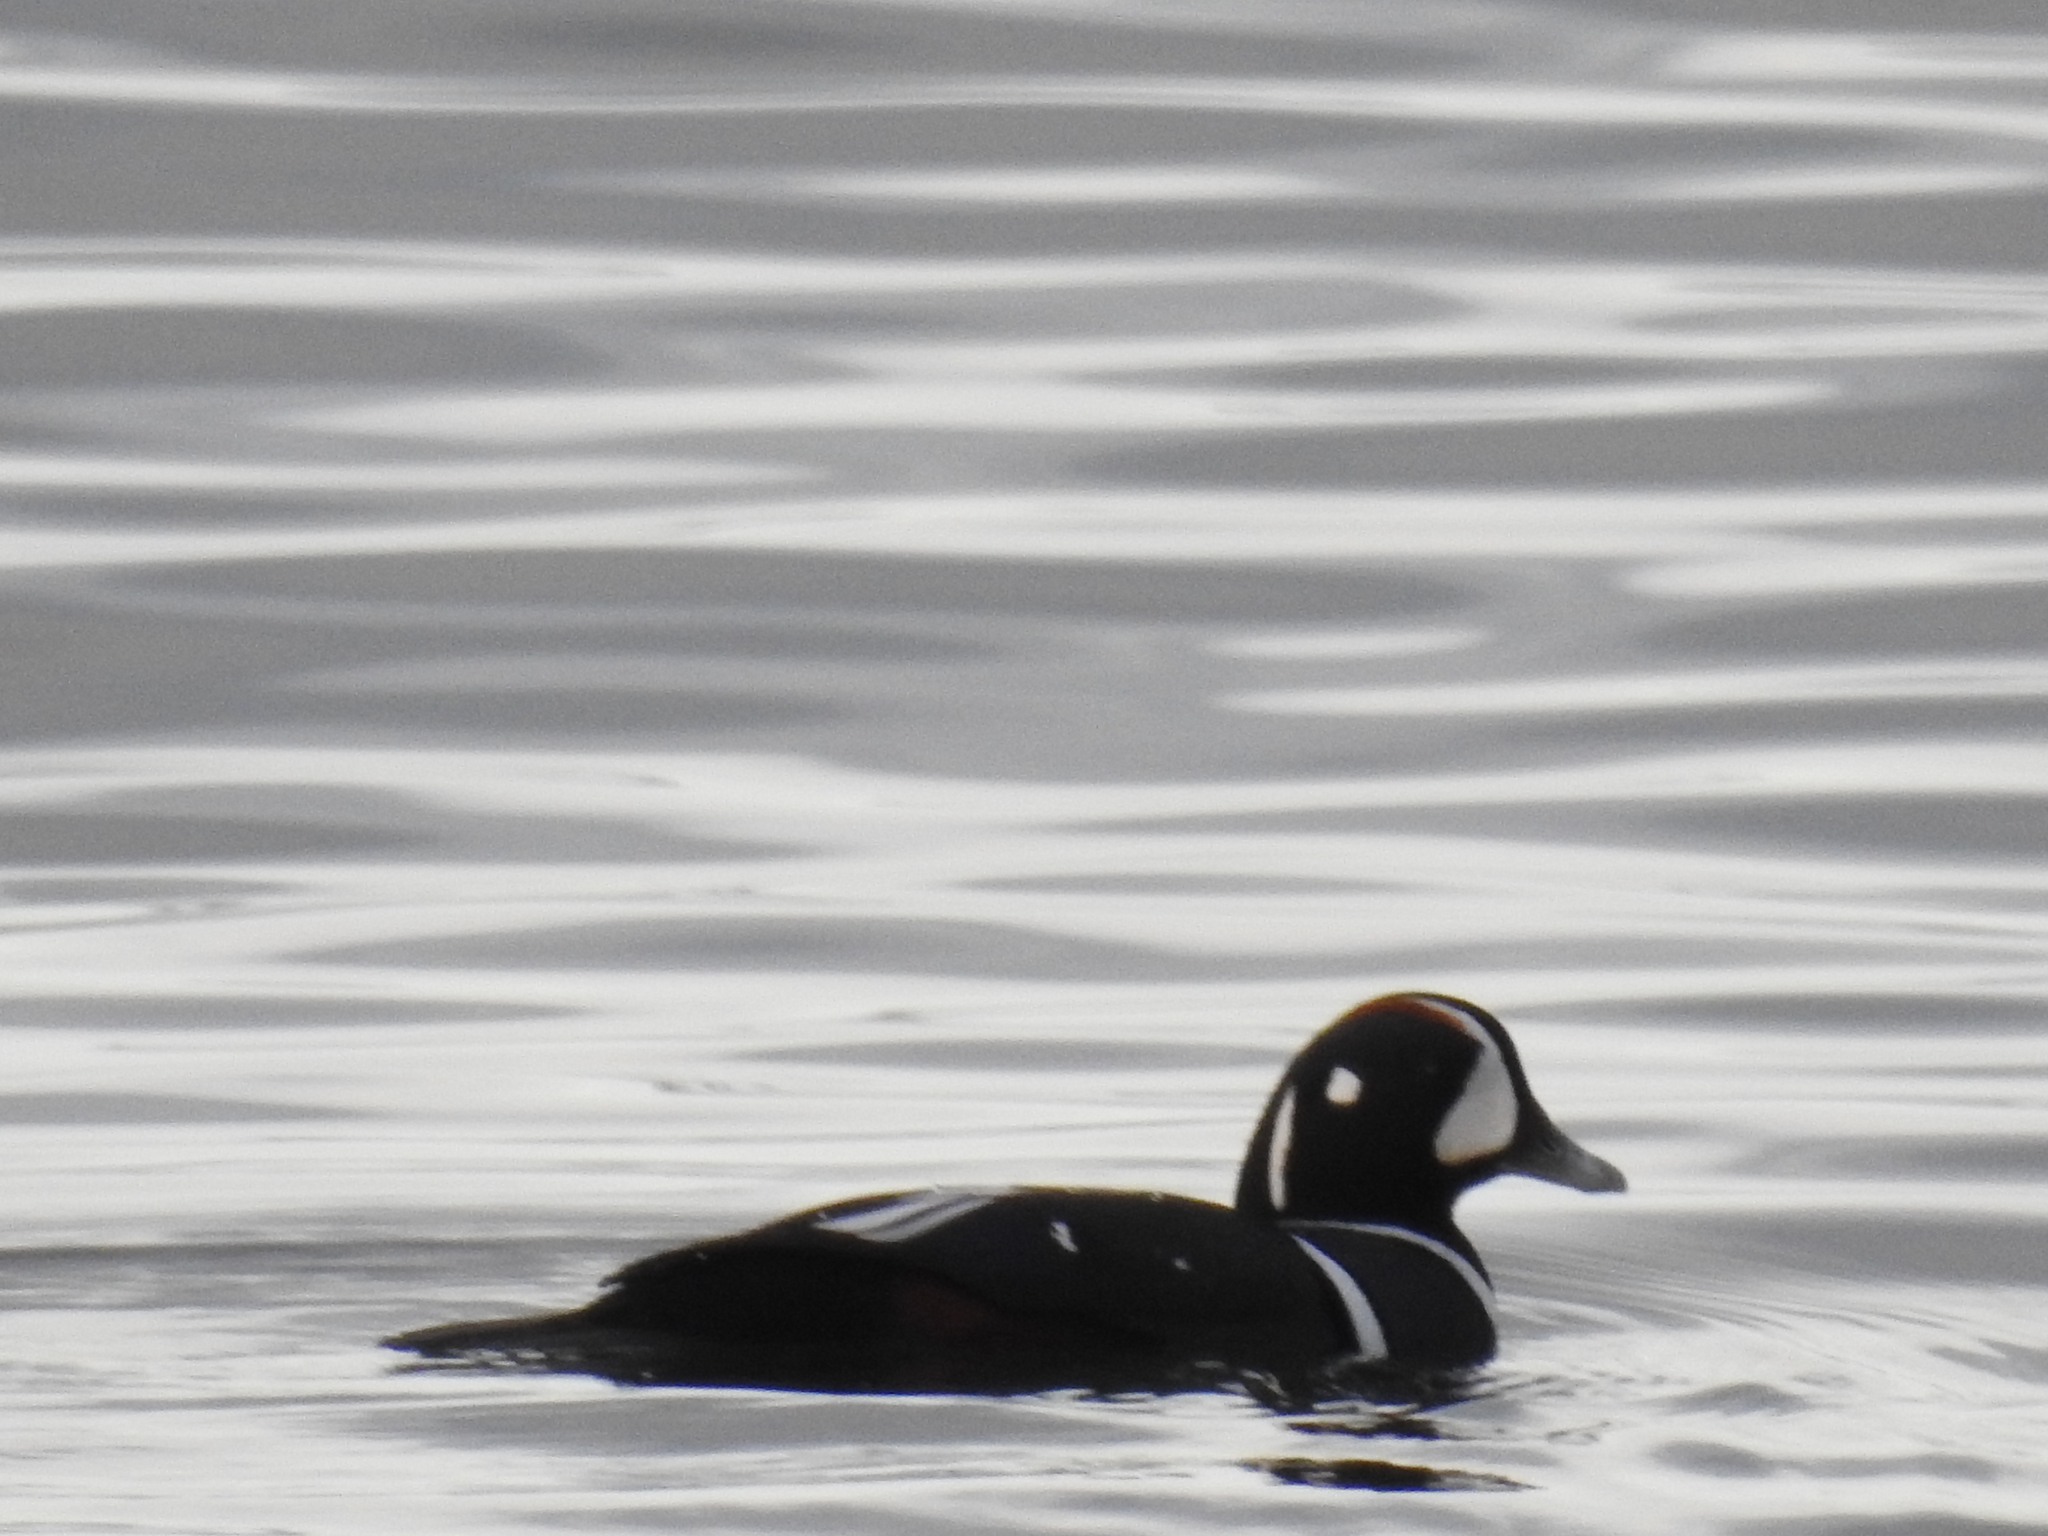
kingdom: Animalia
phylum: Chordata
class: Aves
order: Anseriformes
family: Anatidae
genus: Histrionicus
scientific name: Histrionicus histrionicus
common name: Harlequin duck
